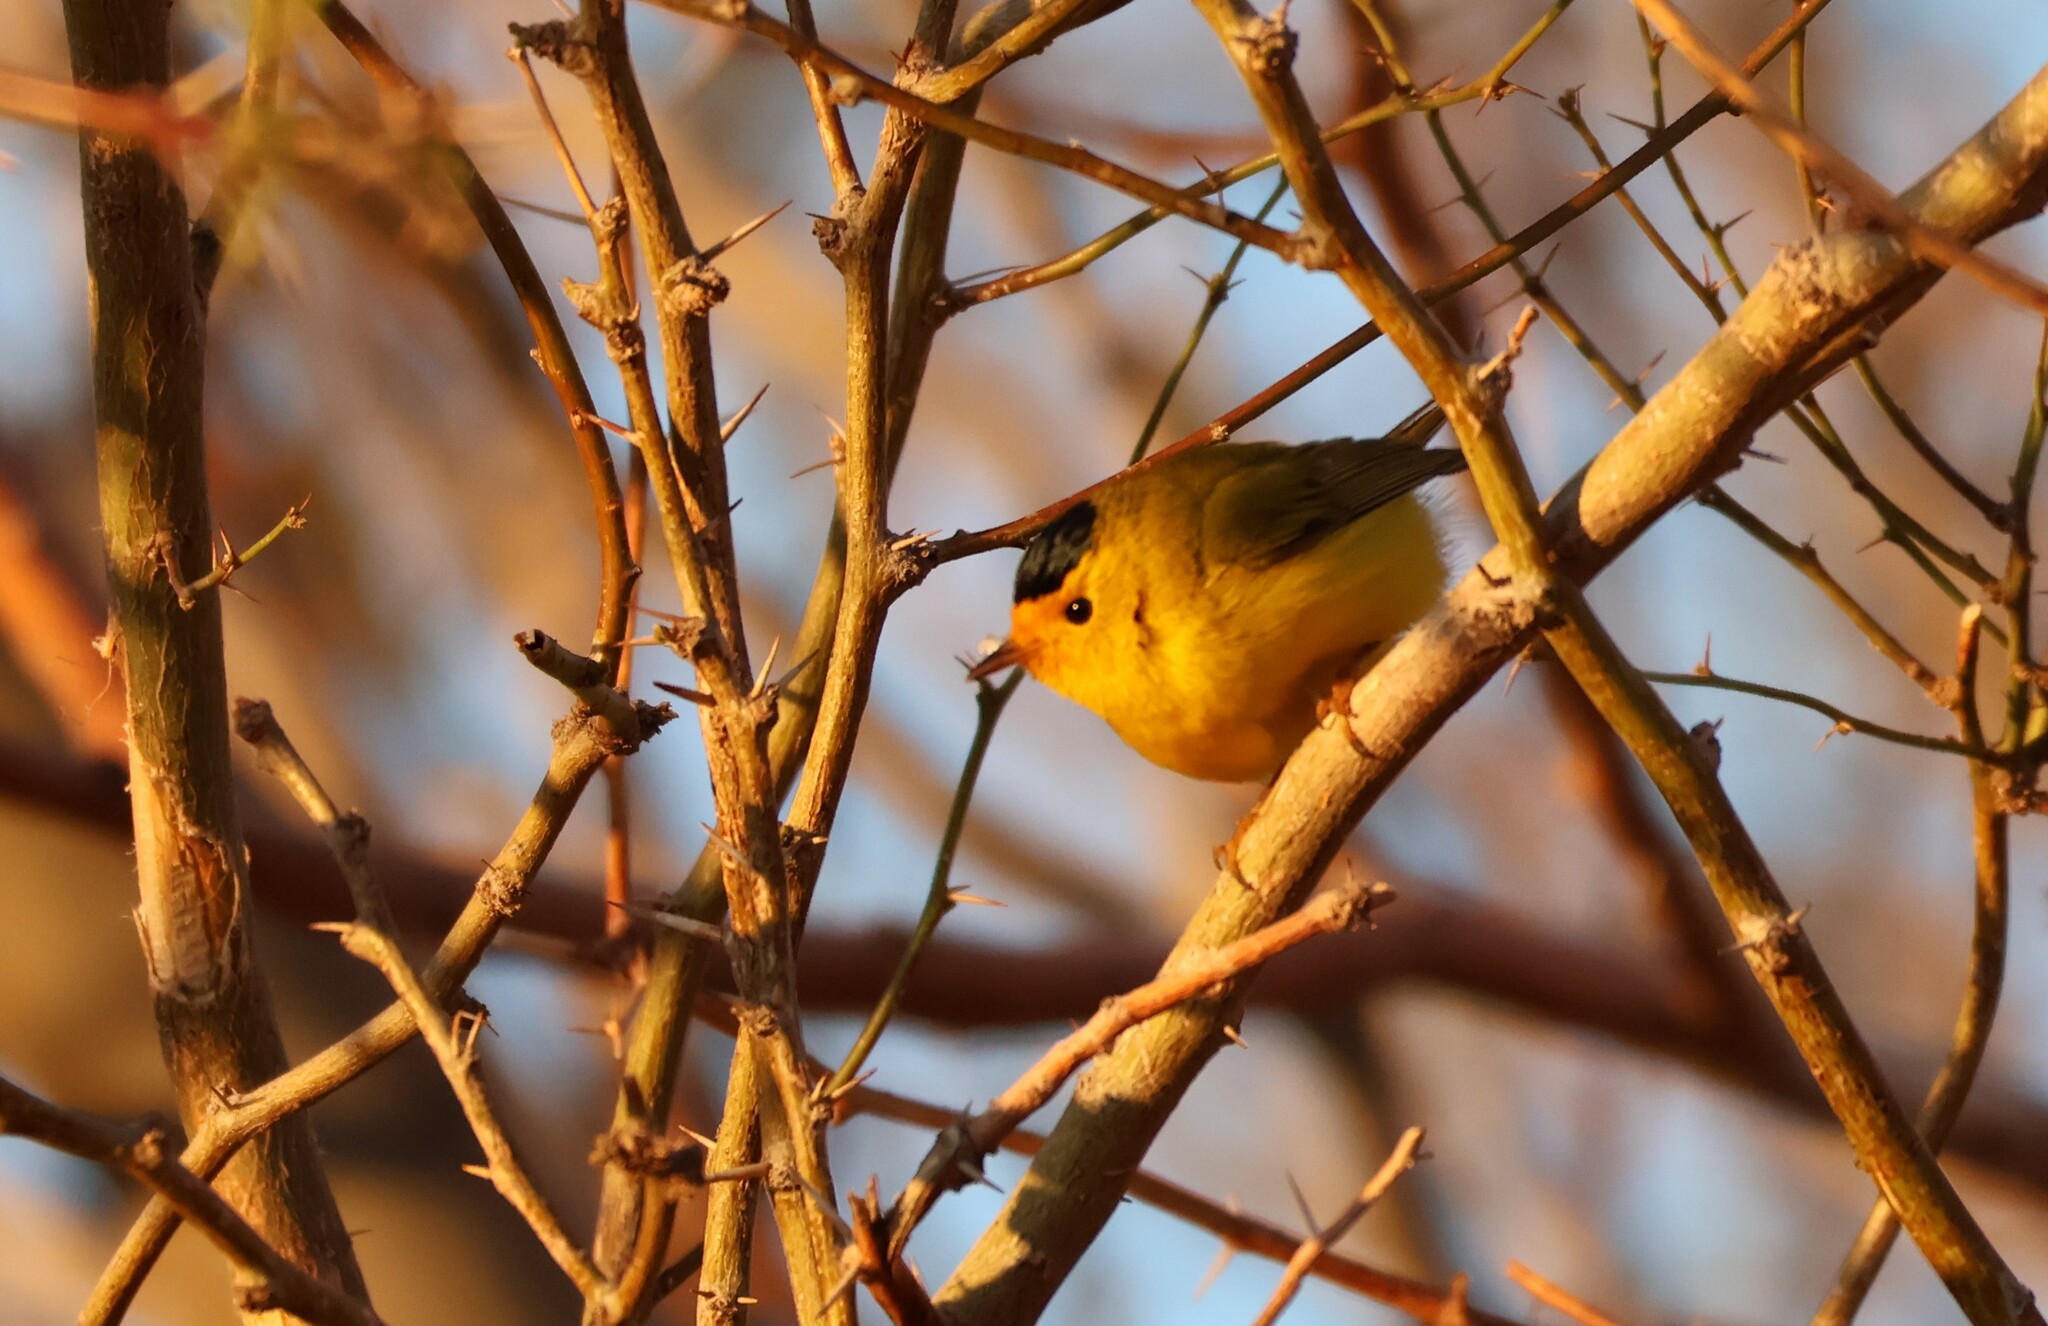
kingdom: Animalia
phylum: Chordata
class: Aves
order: Passeriformes
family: Parulidae
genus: Cardellina
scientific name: Cardellina pusilla
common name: Wilson's warbler
